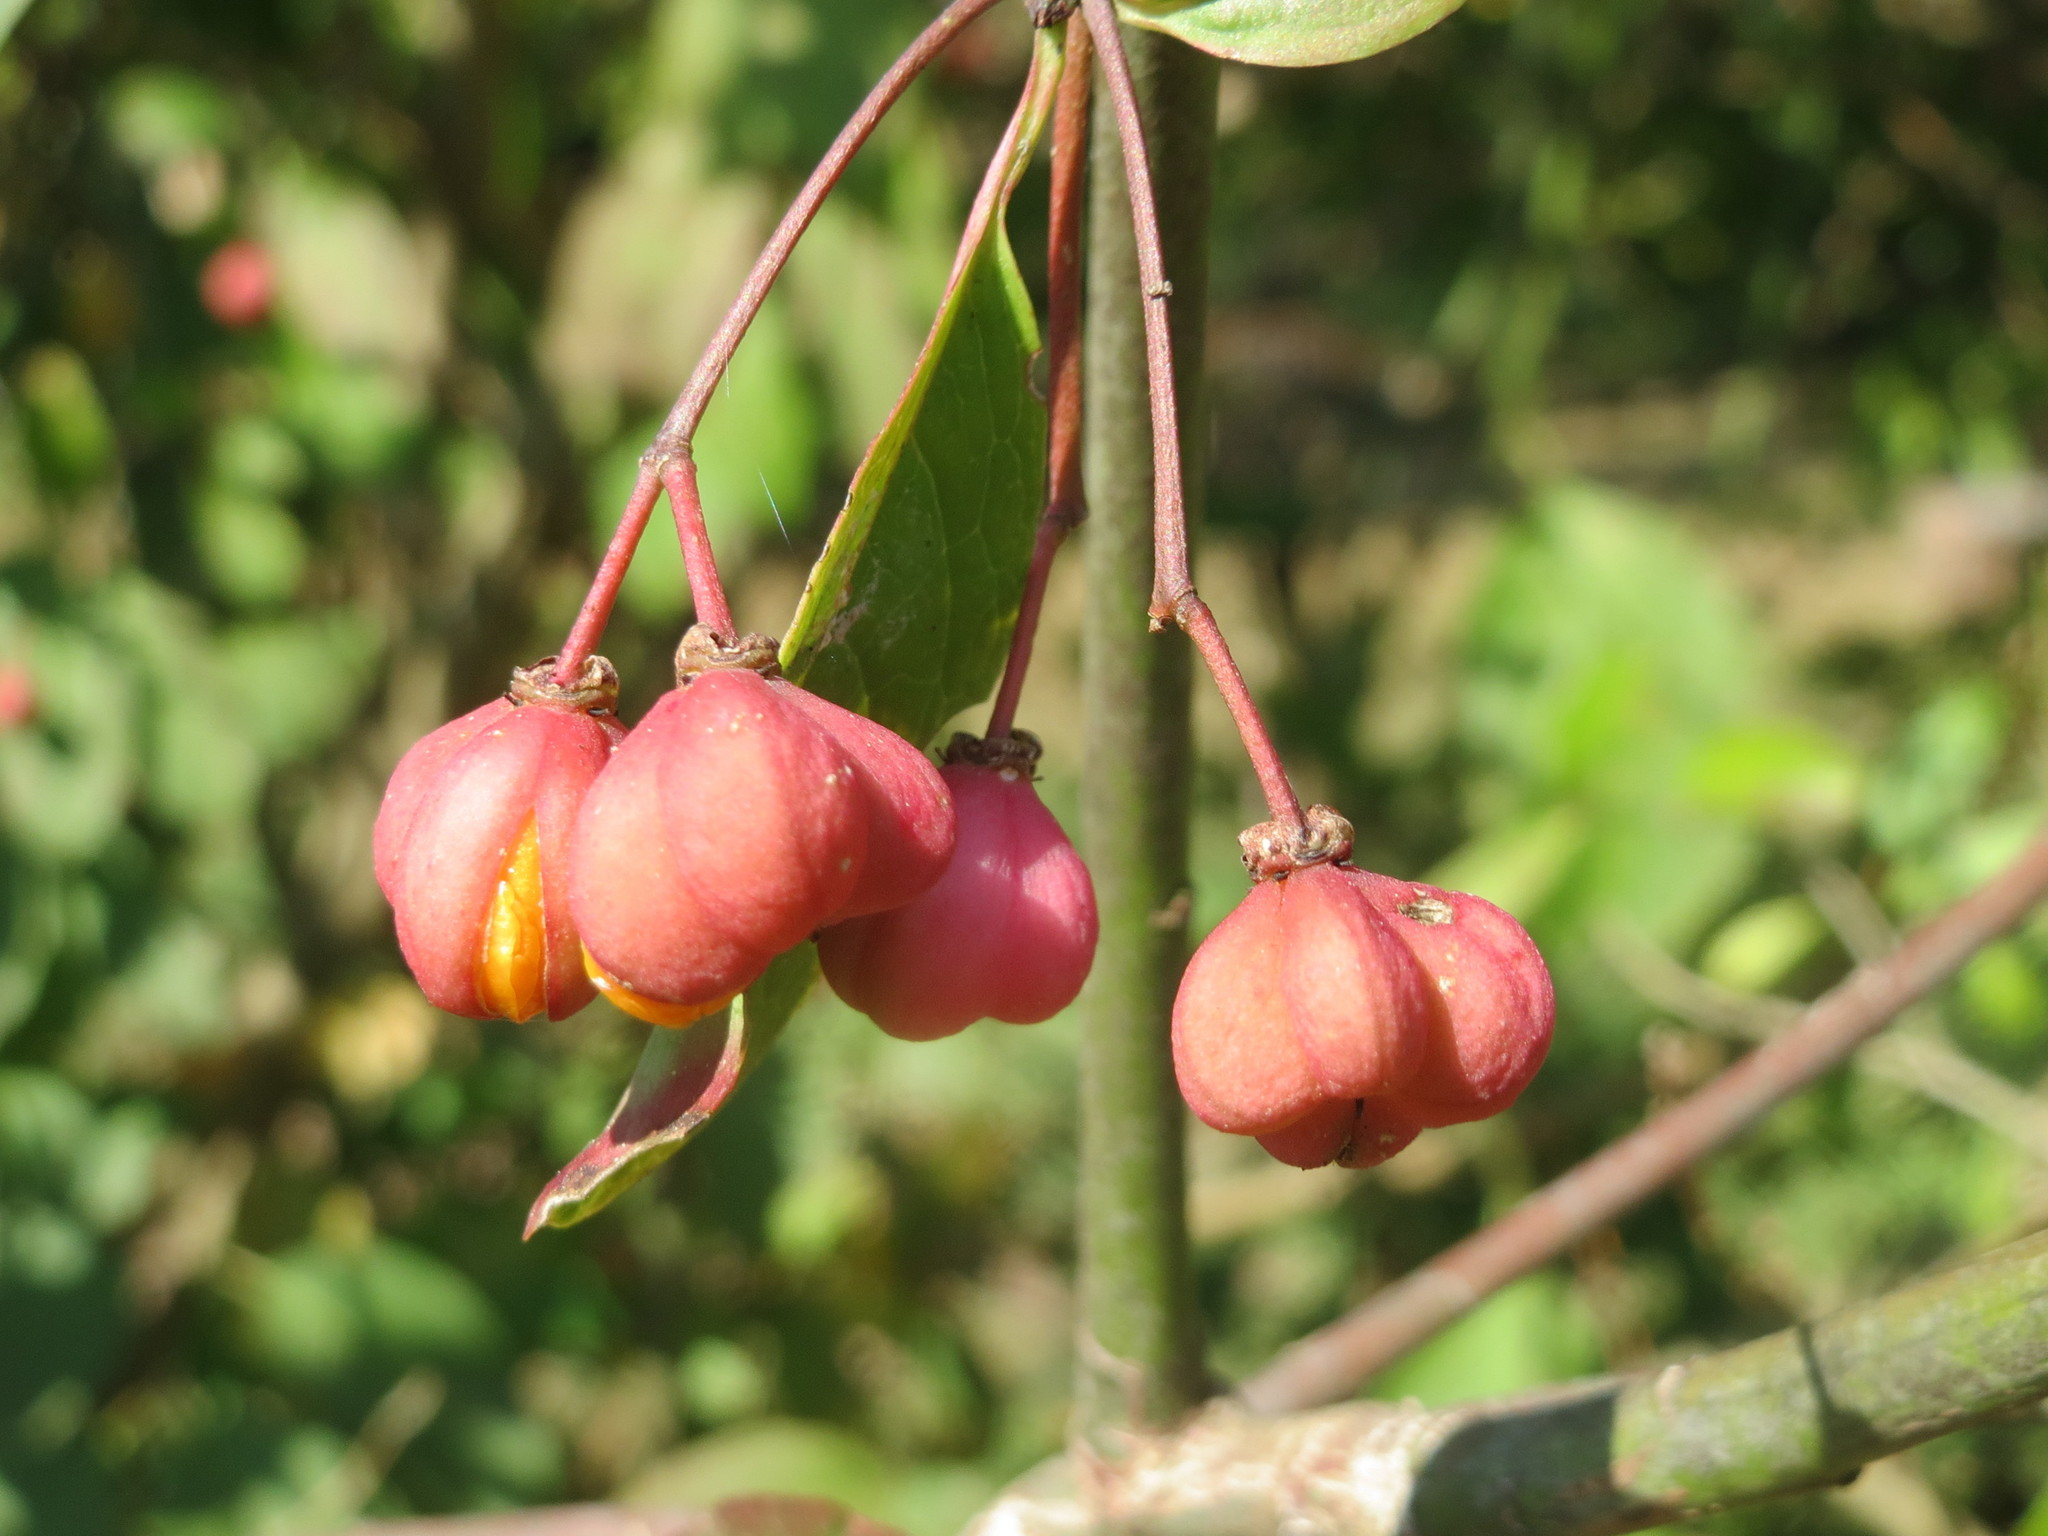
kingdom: Plantae
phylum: Tracheophyta
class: Magnoliopsida
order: Celastrales
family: Celastraceae
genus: Euonymus
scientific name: Euonymus europaeus
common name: Spindle
